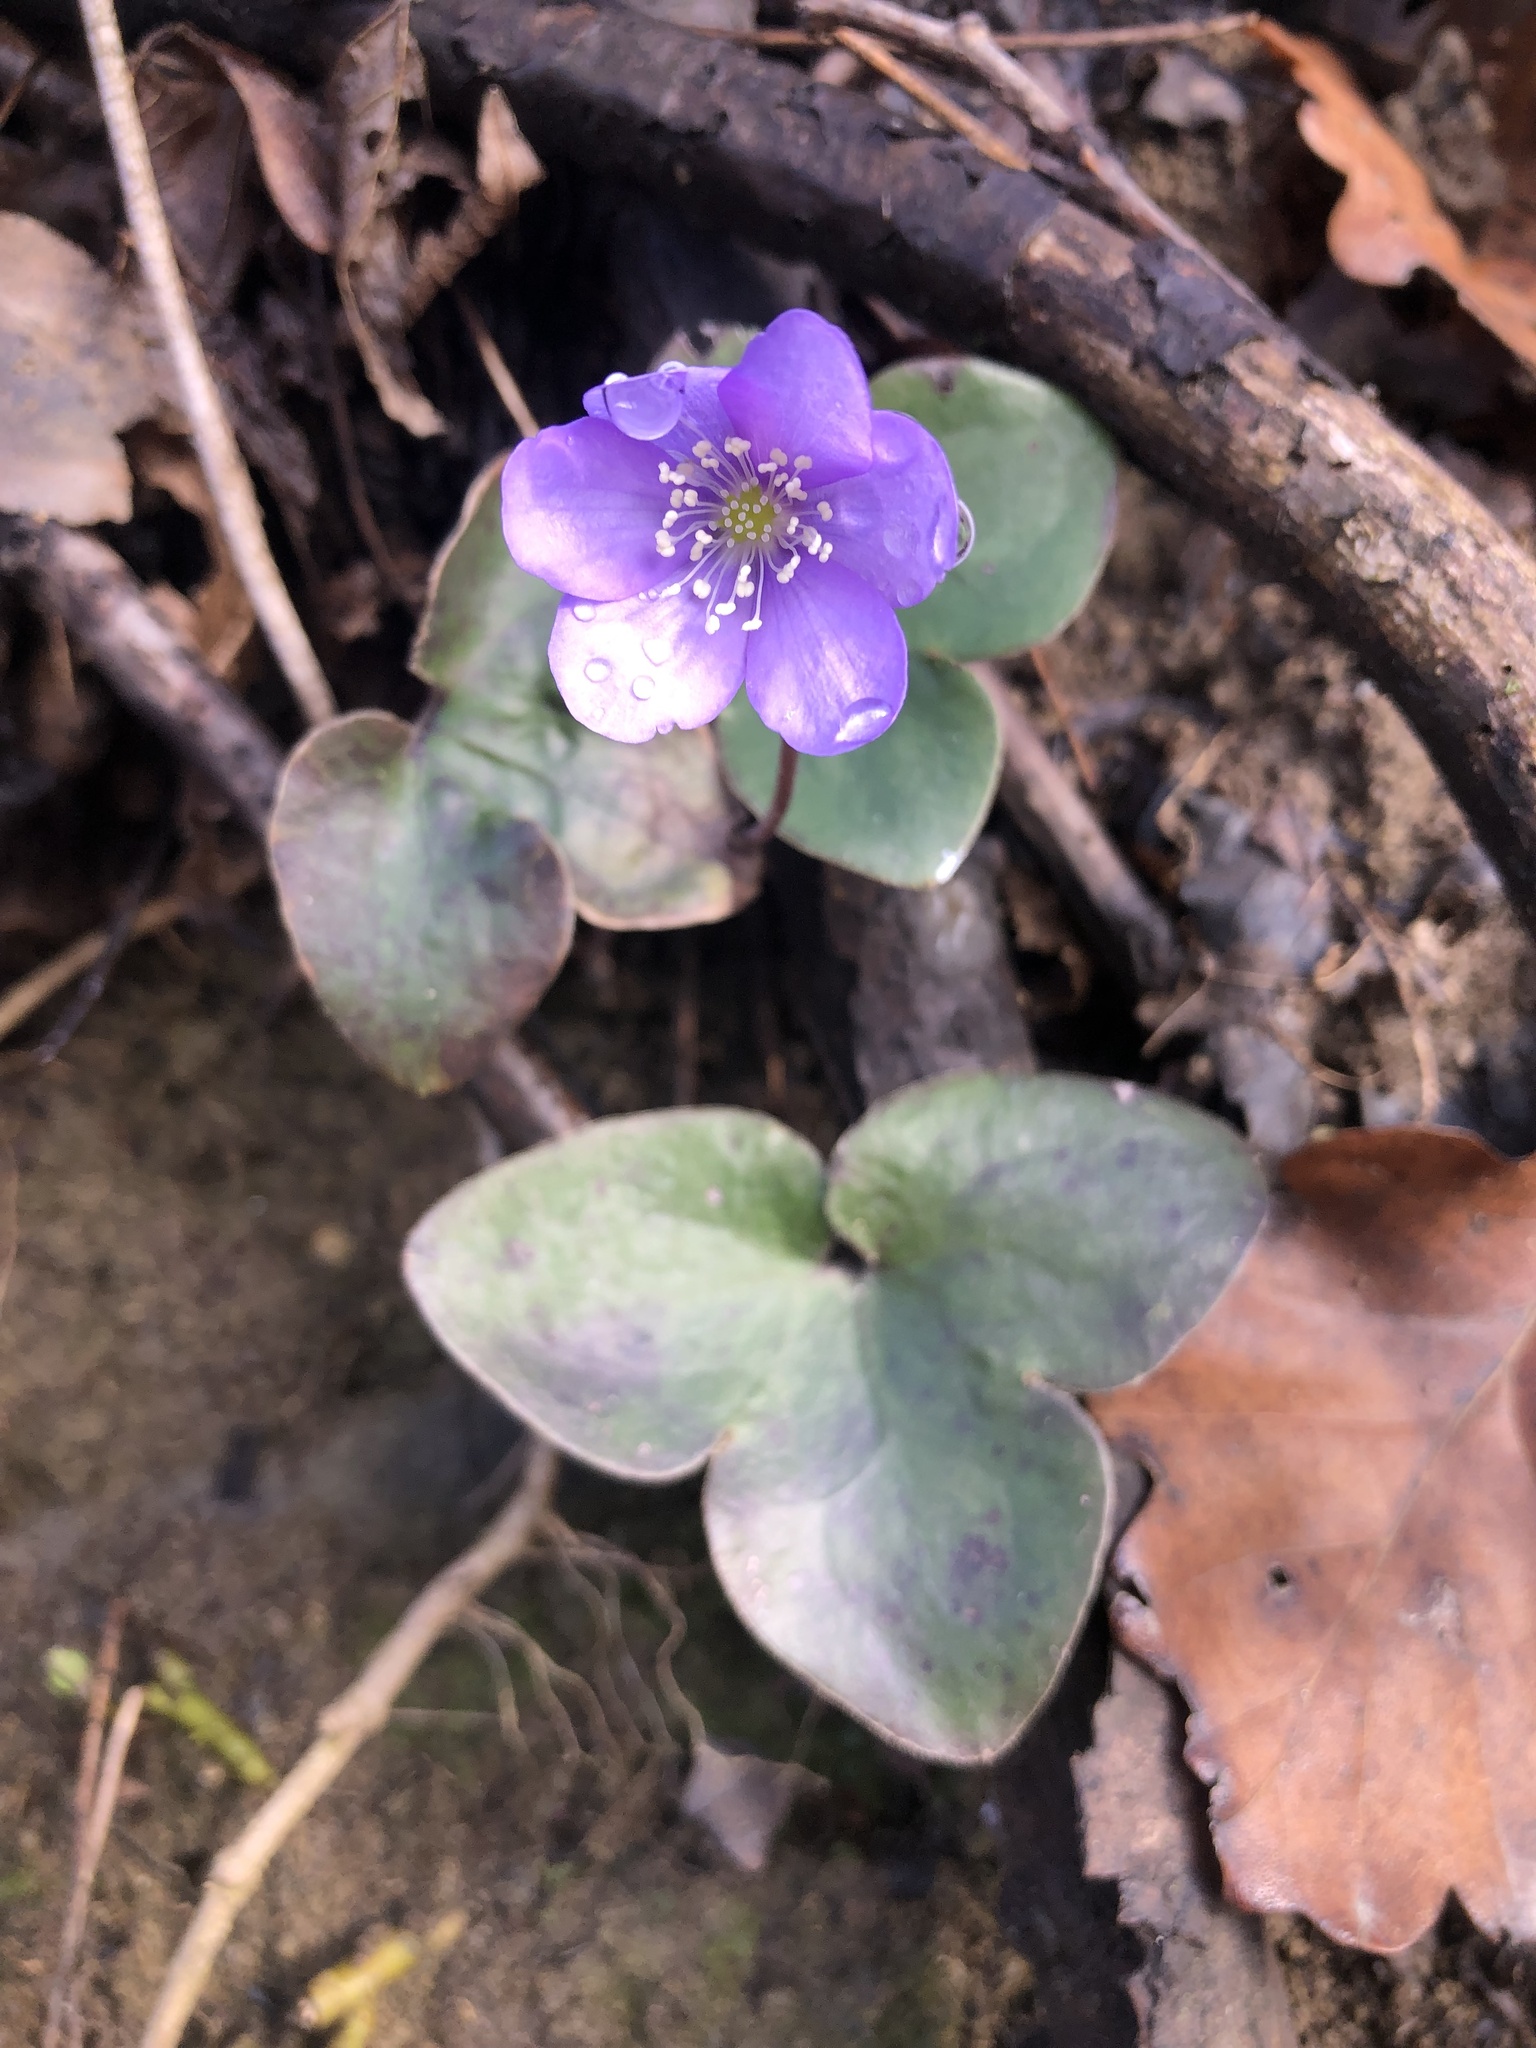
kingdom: Plantae
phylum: Tracheophyta
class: Magnoliopsida
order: Ranunculales
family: Ranunculaceae
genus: Hepatica
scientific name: Hepatica nobilis
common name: Liverleaf
